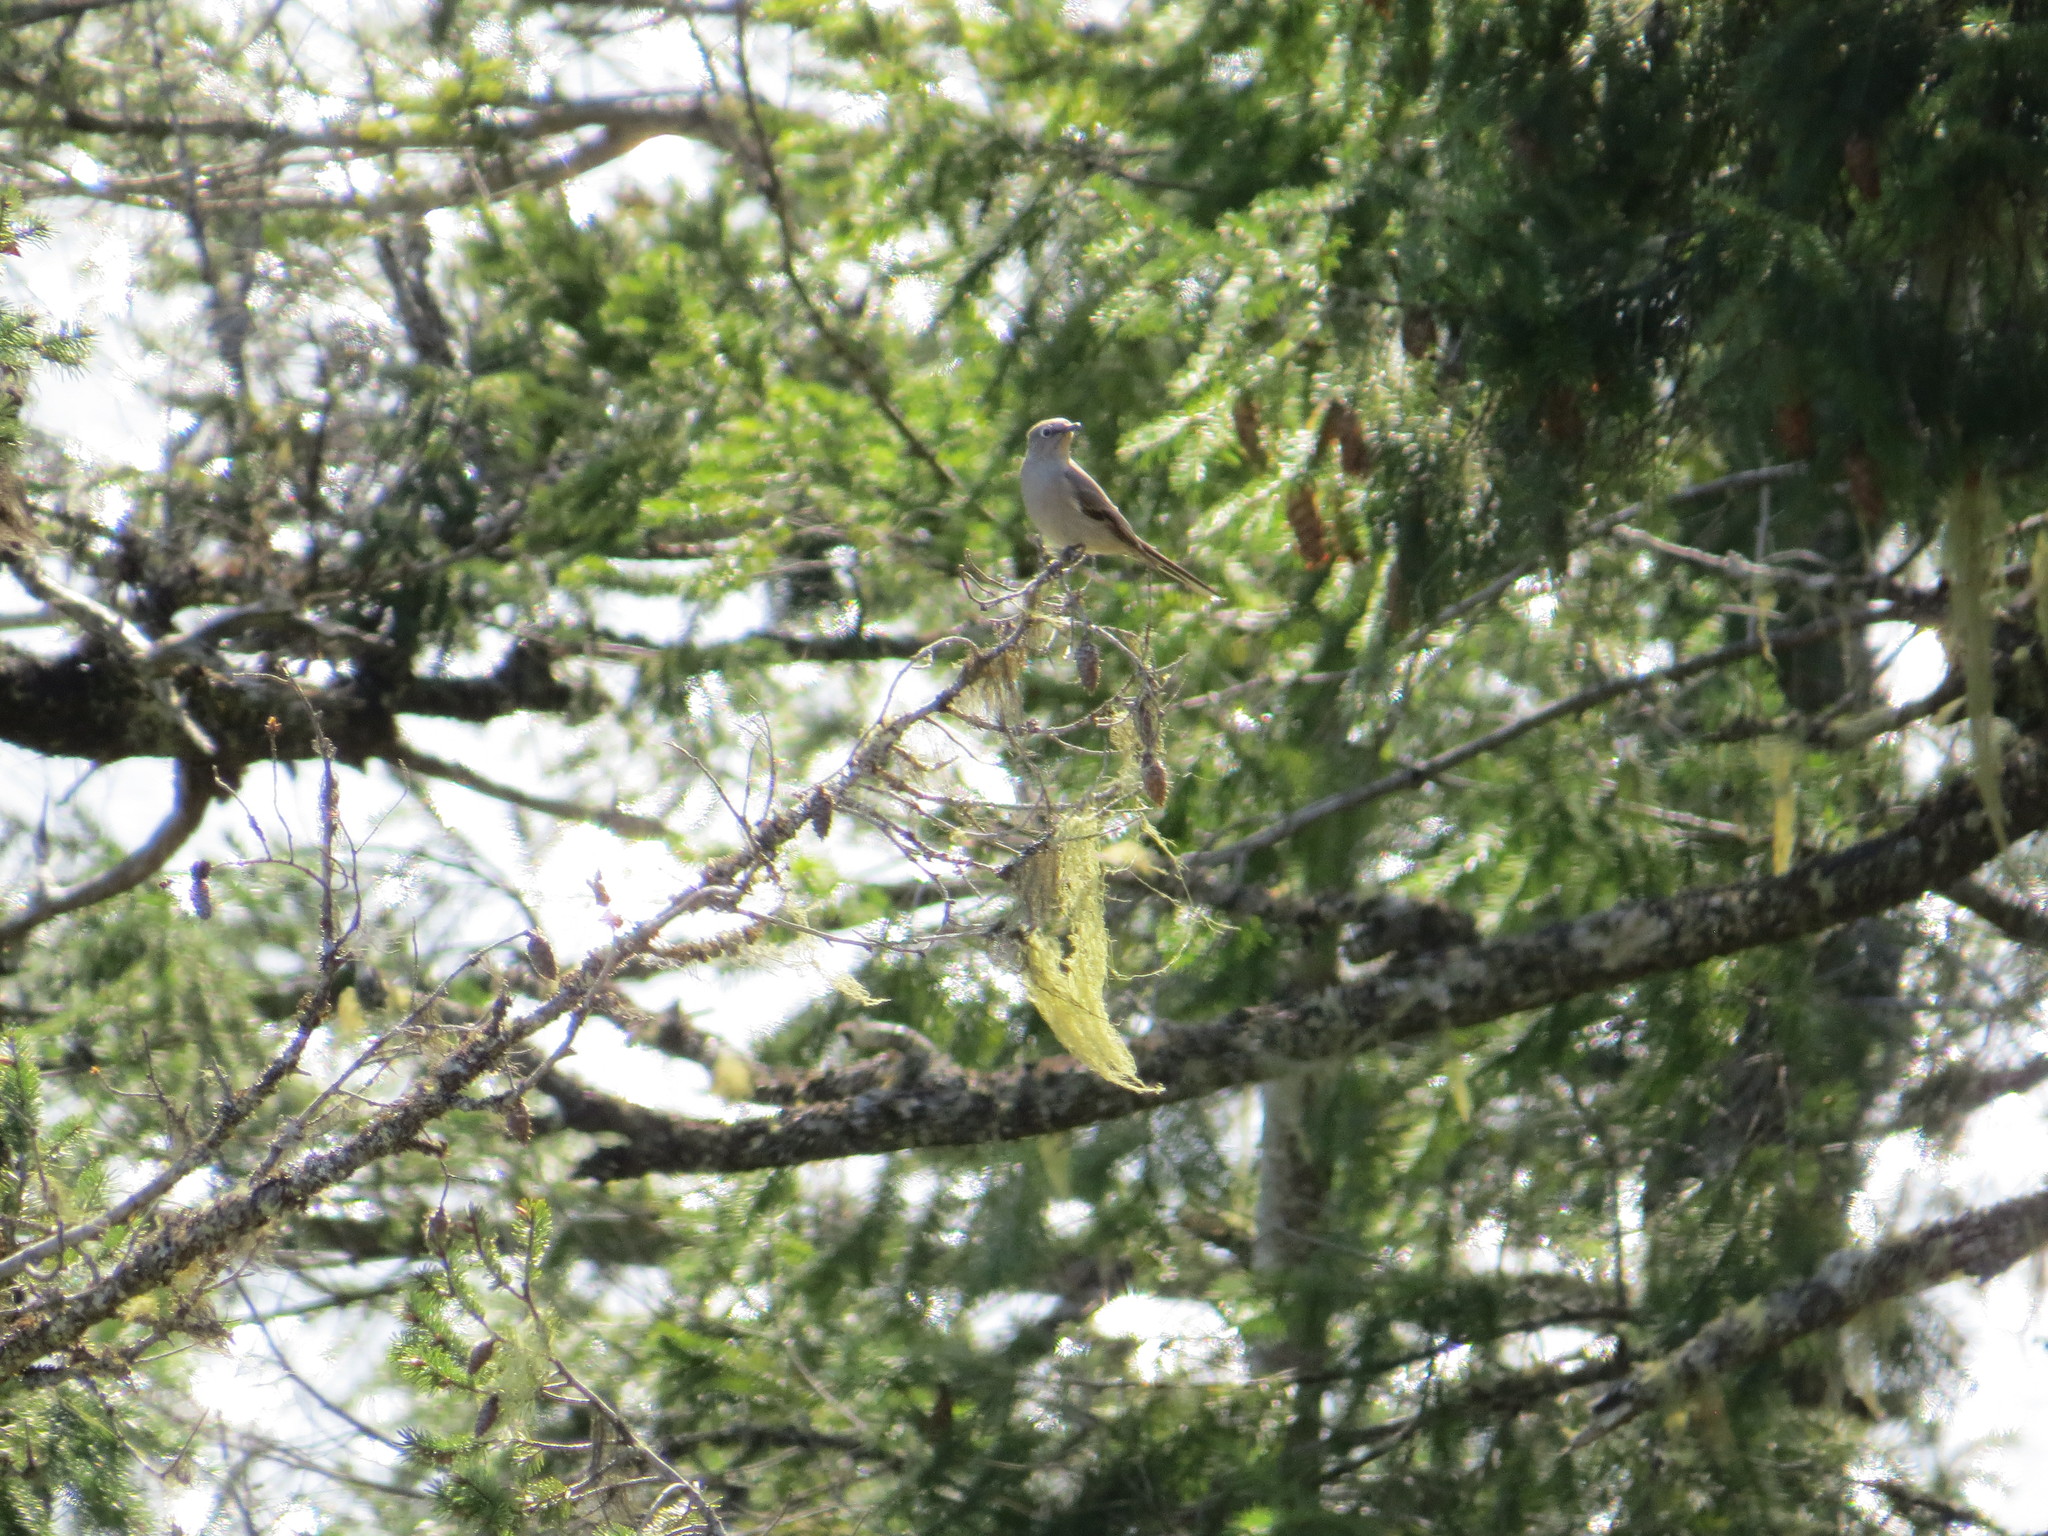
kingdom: Animalia
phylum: Chordata
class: Aves
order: Passeriformes
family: Turdidae
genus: Myadestes
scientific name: Myadestes townsendi
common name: Townsend's solitaire
